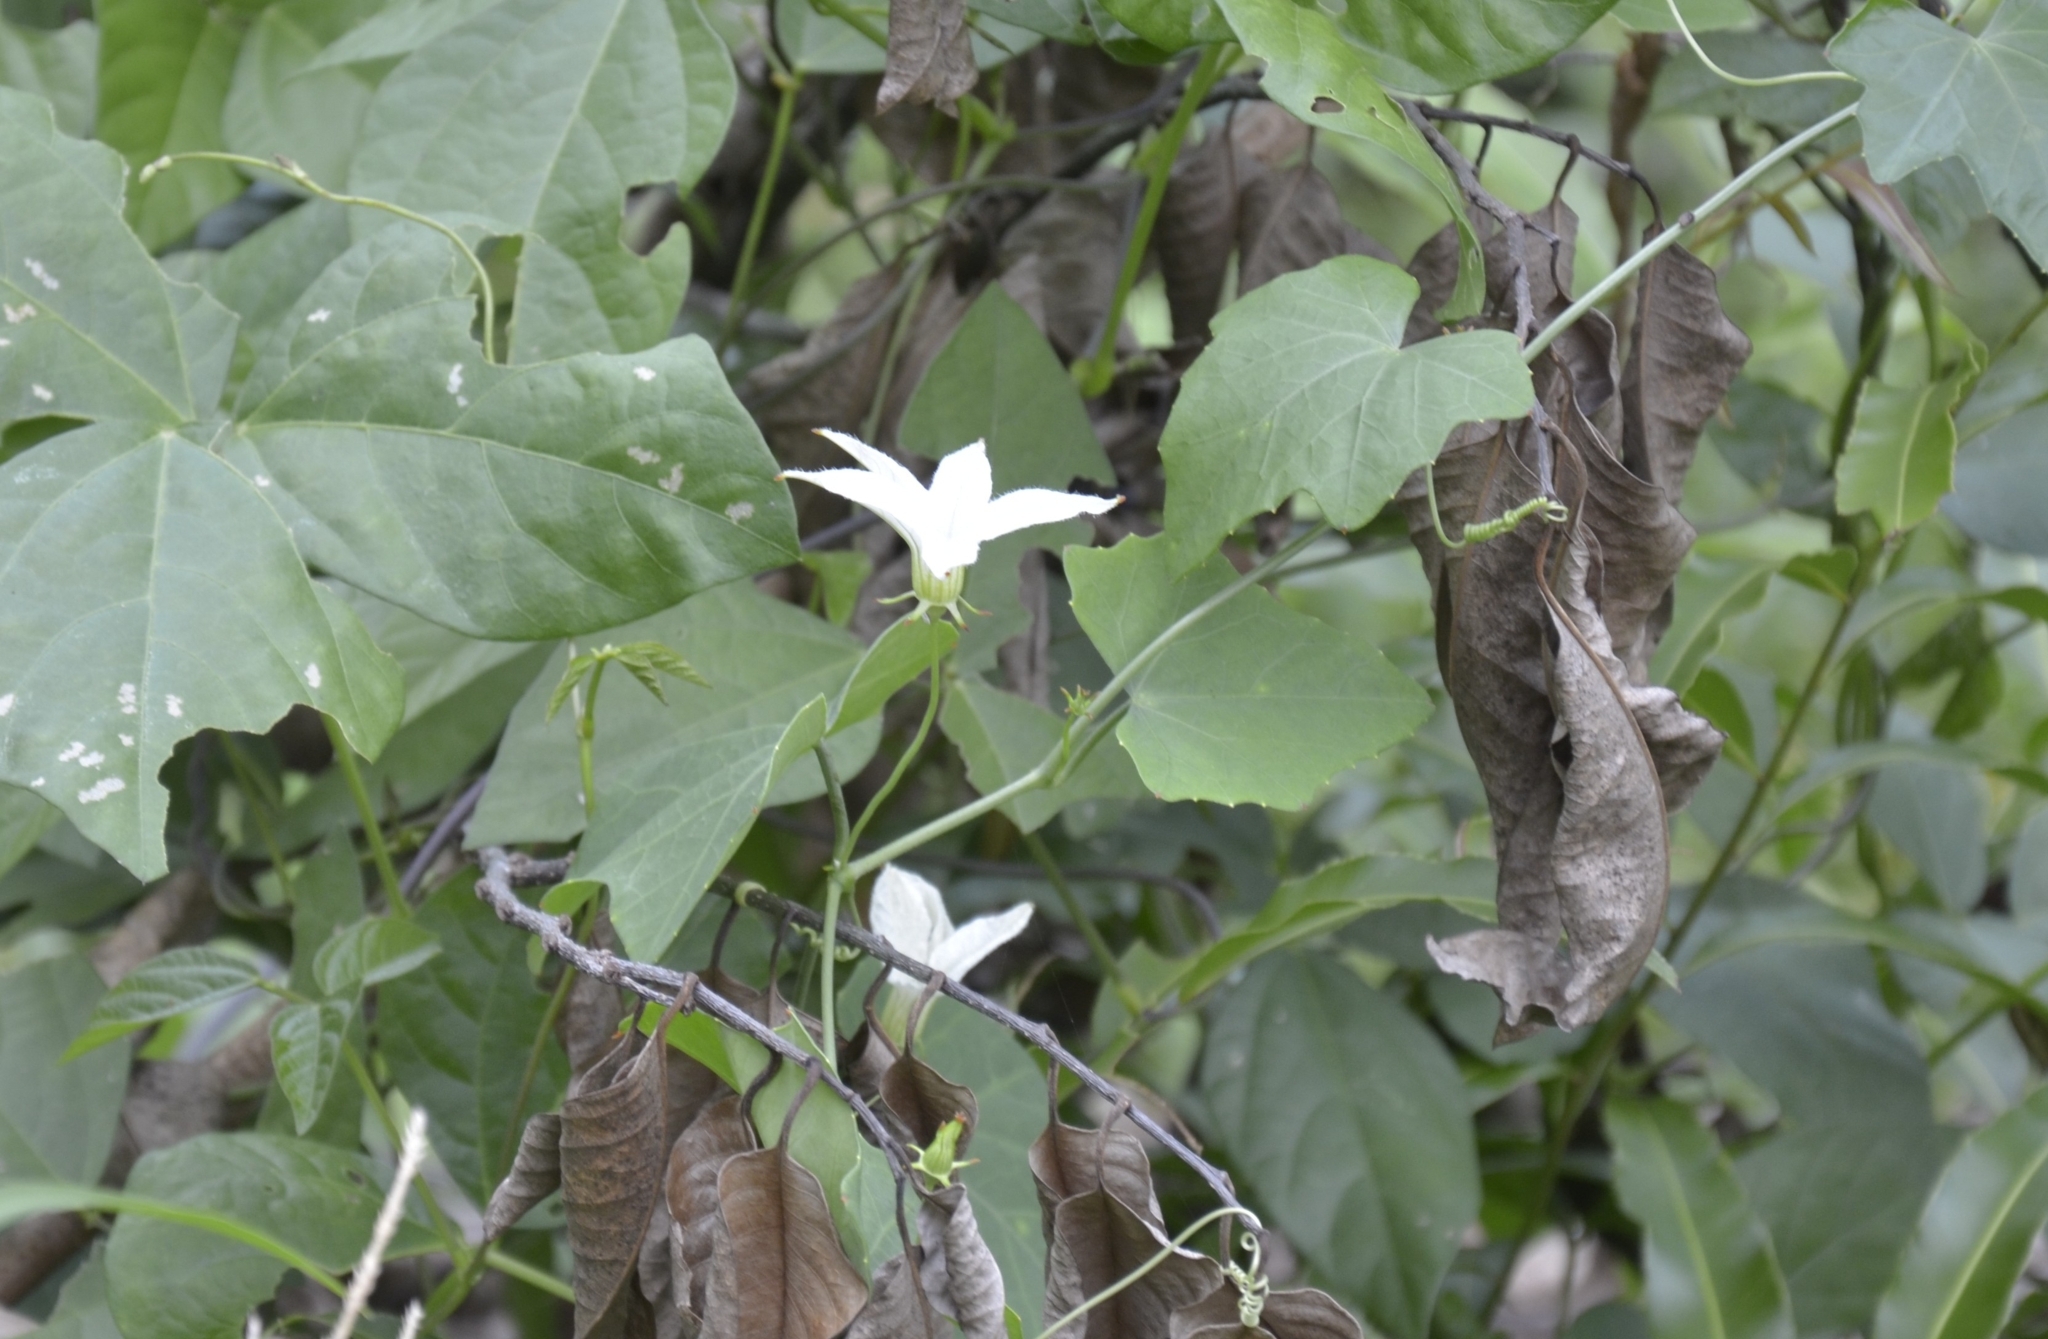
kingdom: Plantae
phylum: Tracheophyta
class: Magnoliopsida
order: Cucurbitales
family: Cucurbitaceae
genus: Coccinia
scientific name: Coccinia grandis
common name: Ivy gourd
